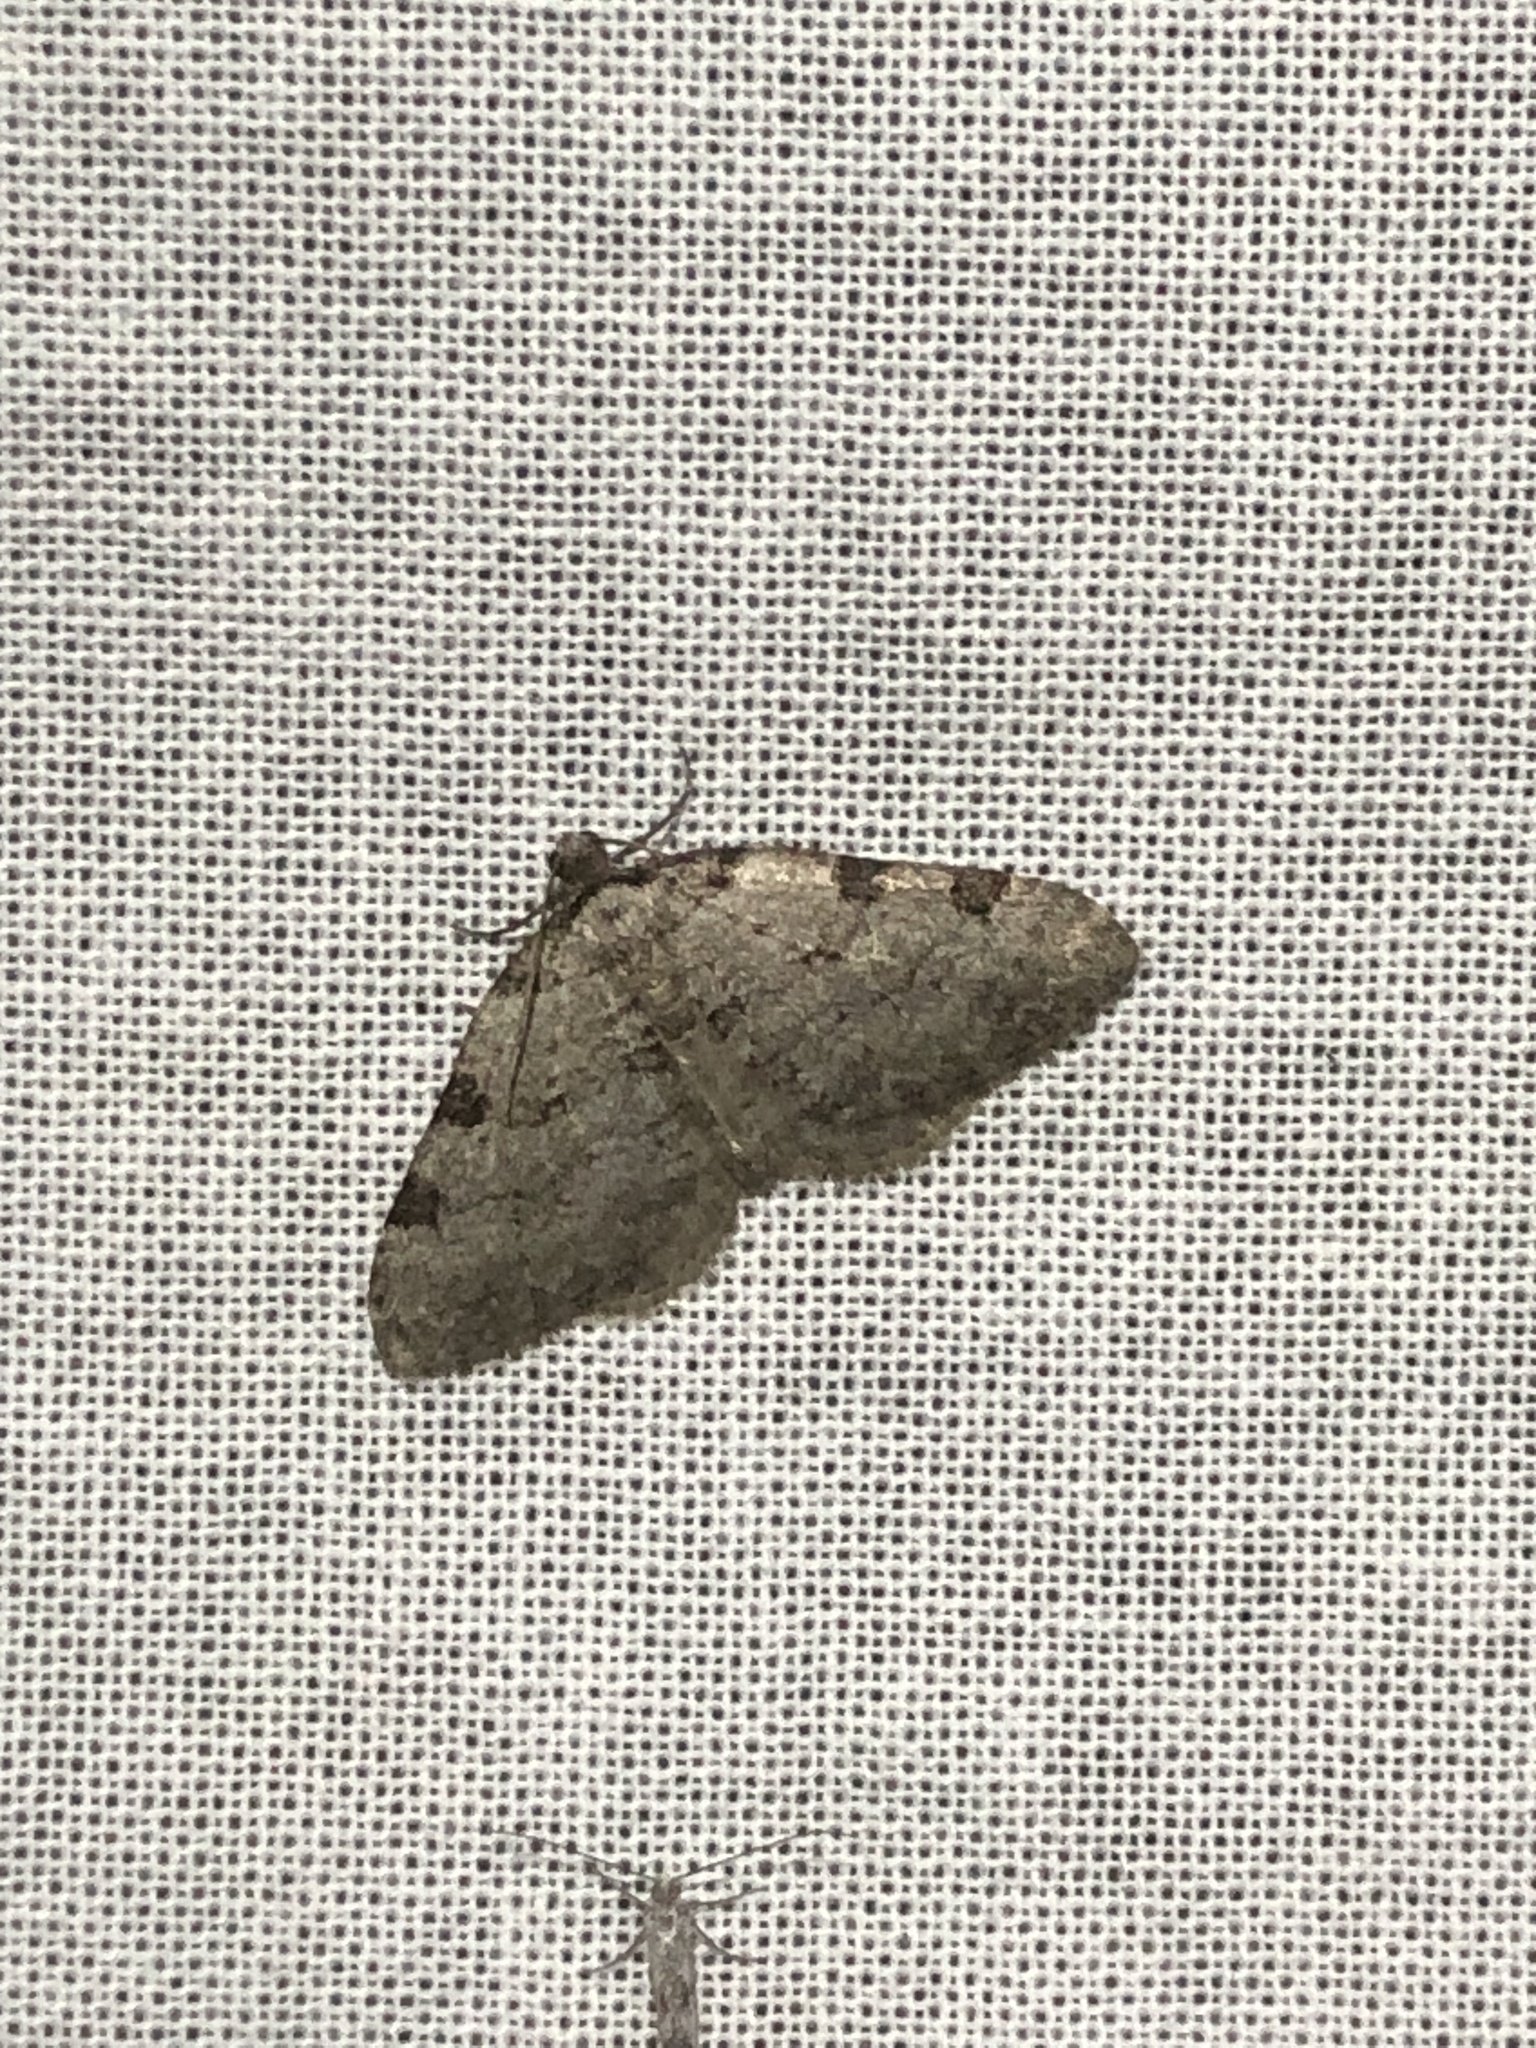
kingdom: Animalia
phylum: Arthropoda
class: Insecta
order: Lepidoptera
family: Geometridae
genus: Perizoma
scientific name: Perizoma costiguttata
